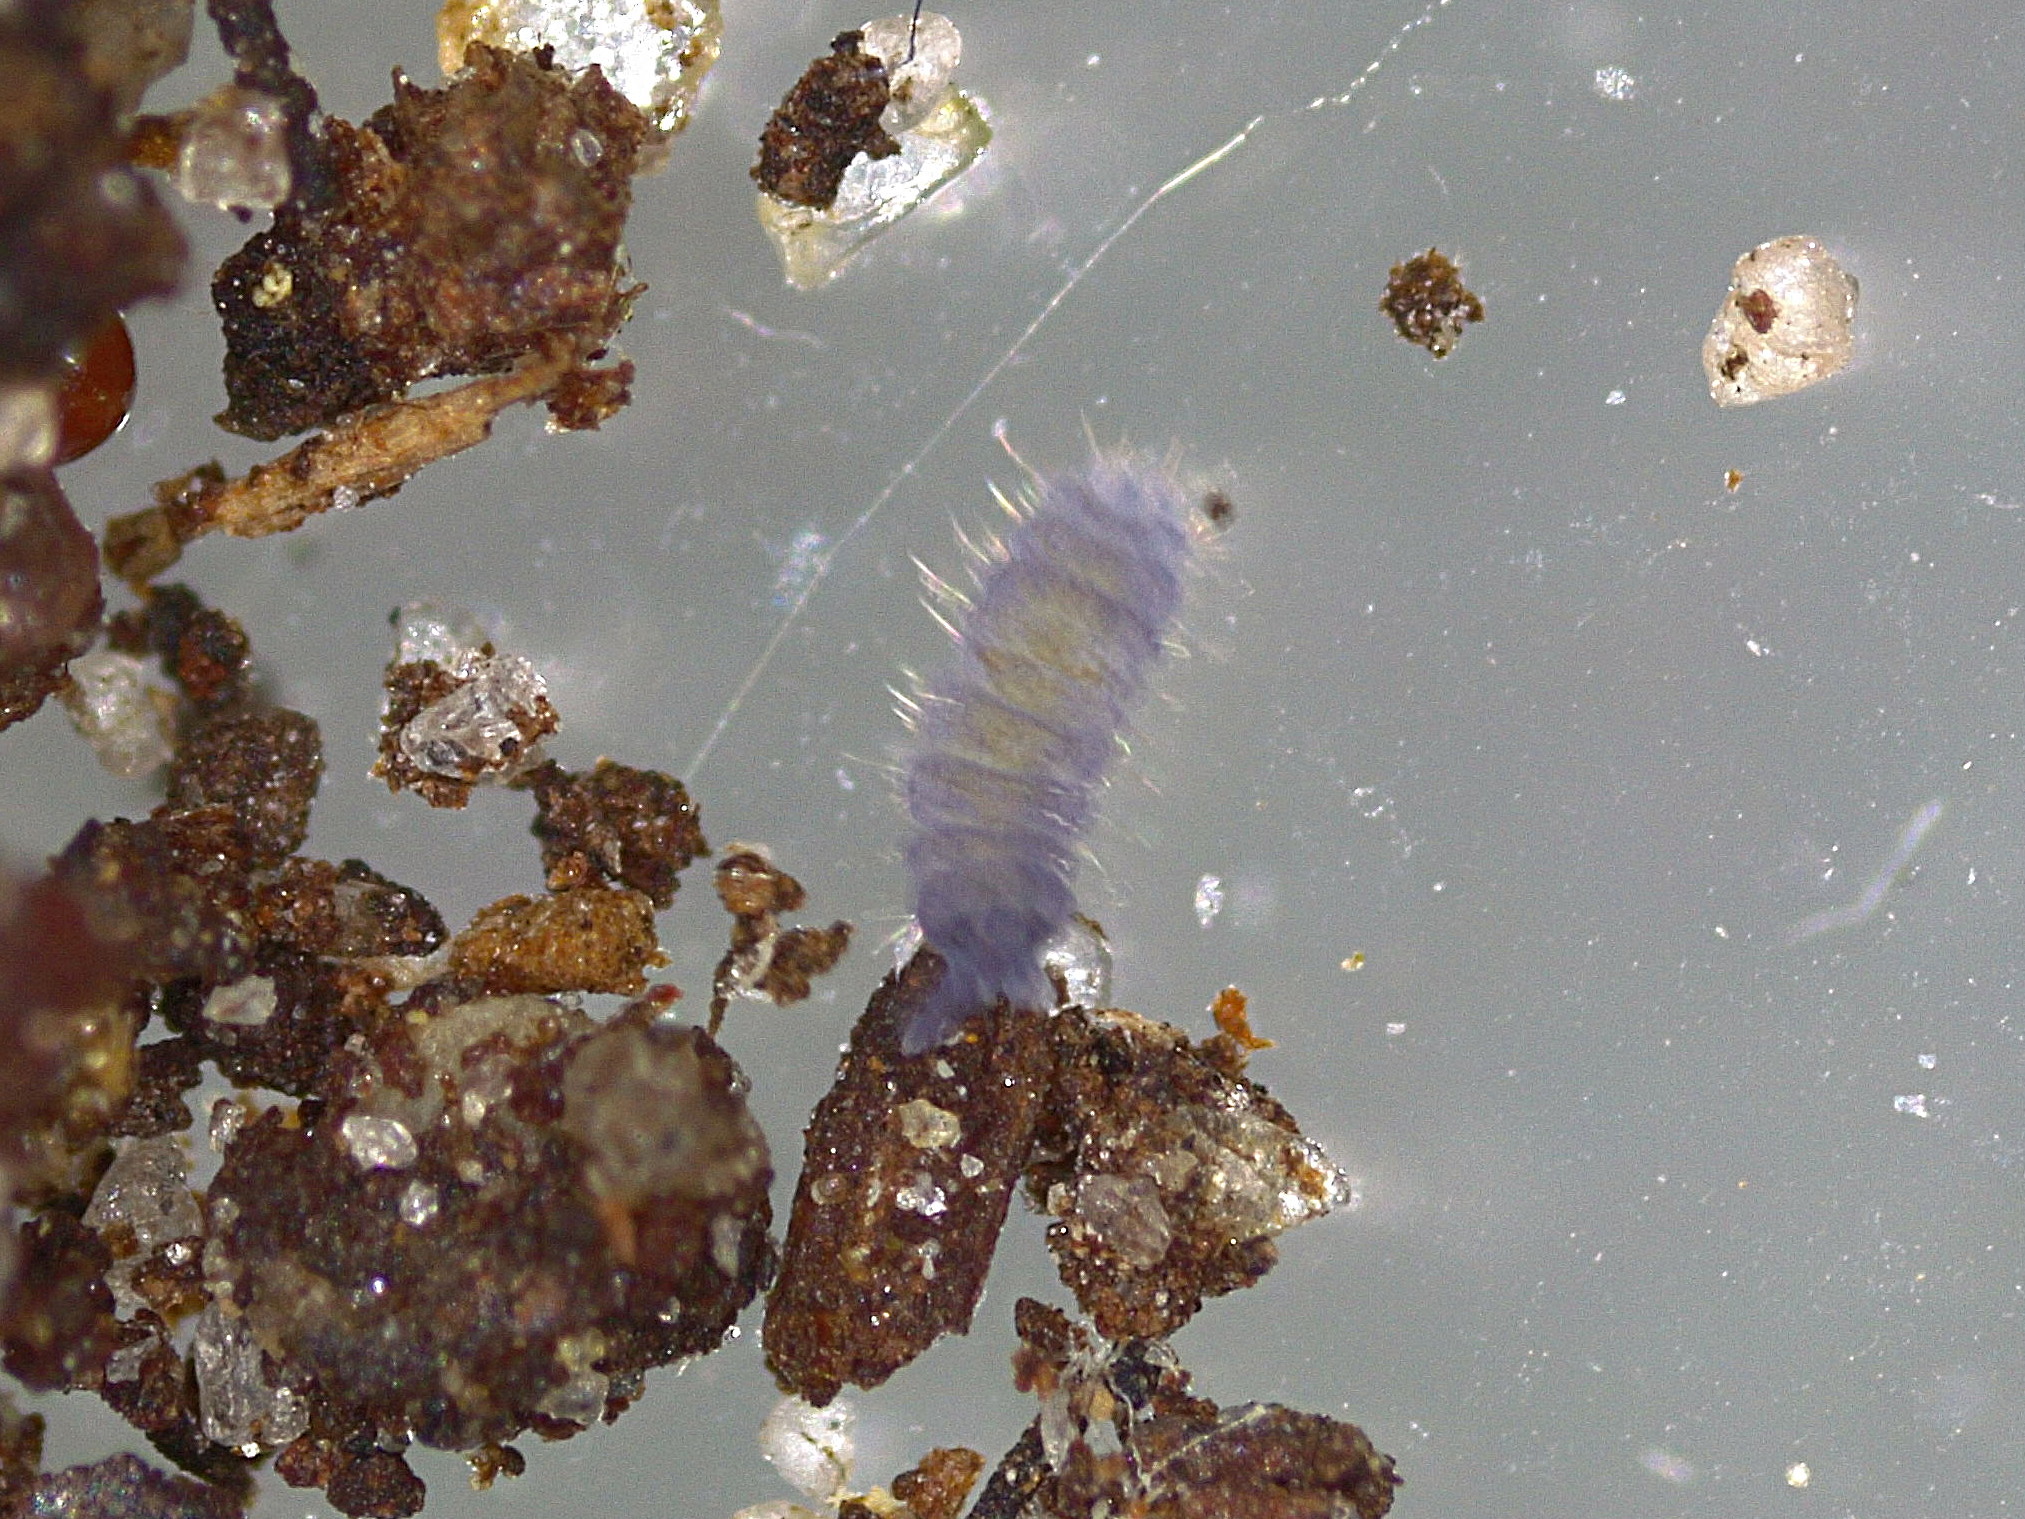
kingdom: Animalia
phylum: Arthropoda
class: Collembola
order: Poduromorpha
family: Neanuridae
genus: Neanura
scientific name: Neanura muscorum
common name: Springtail
